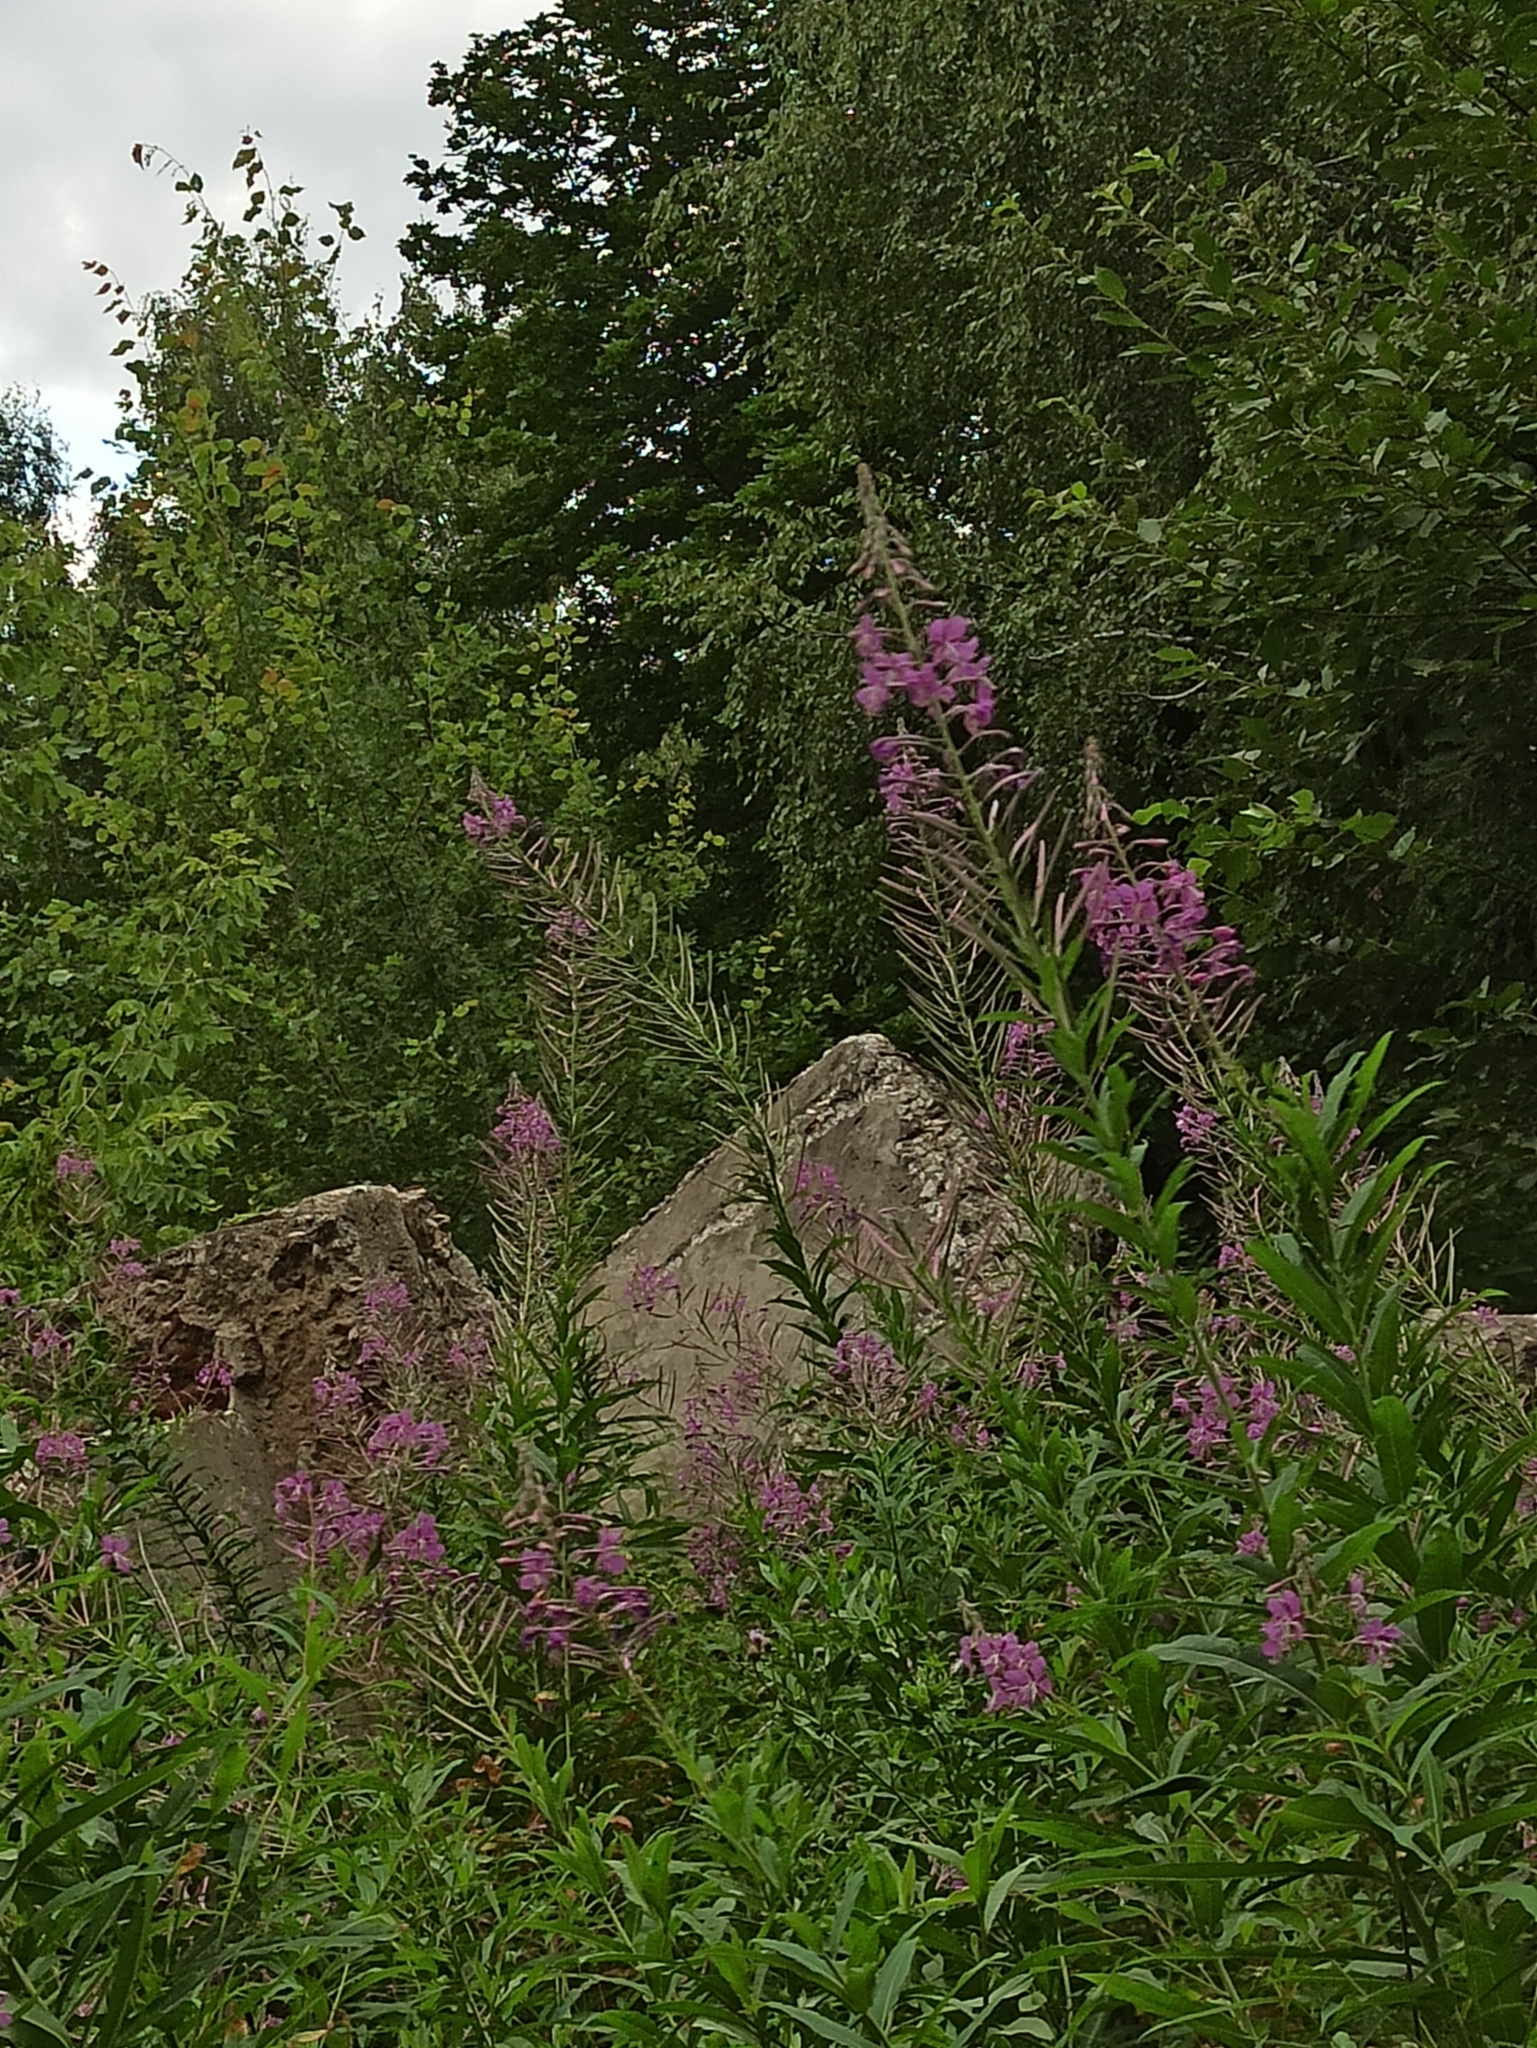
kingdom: Plantae
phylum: Tracheophyta
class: Magnoliopsida
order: Myrtales
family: Onagraceae
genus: Chamaenerion
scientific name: Chamaenerion angustifolium
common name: Fireweed
